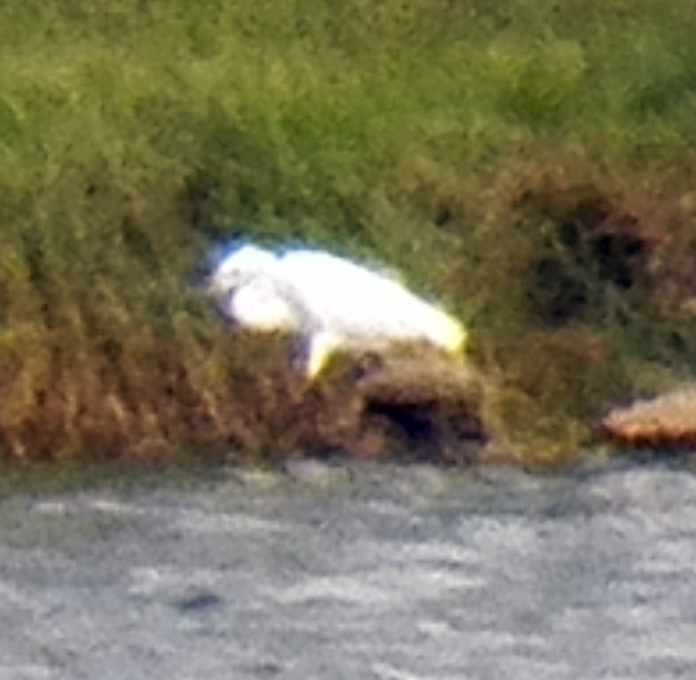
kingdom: Animalia
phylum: Chordata
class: Aves
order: Pelecaniformes
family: Ardeidae
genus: Egretta
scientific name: Egretta thula
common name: Snowy egret
